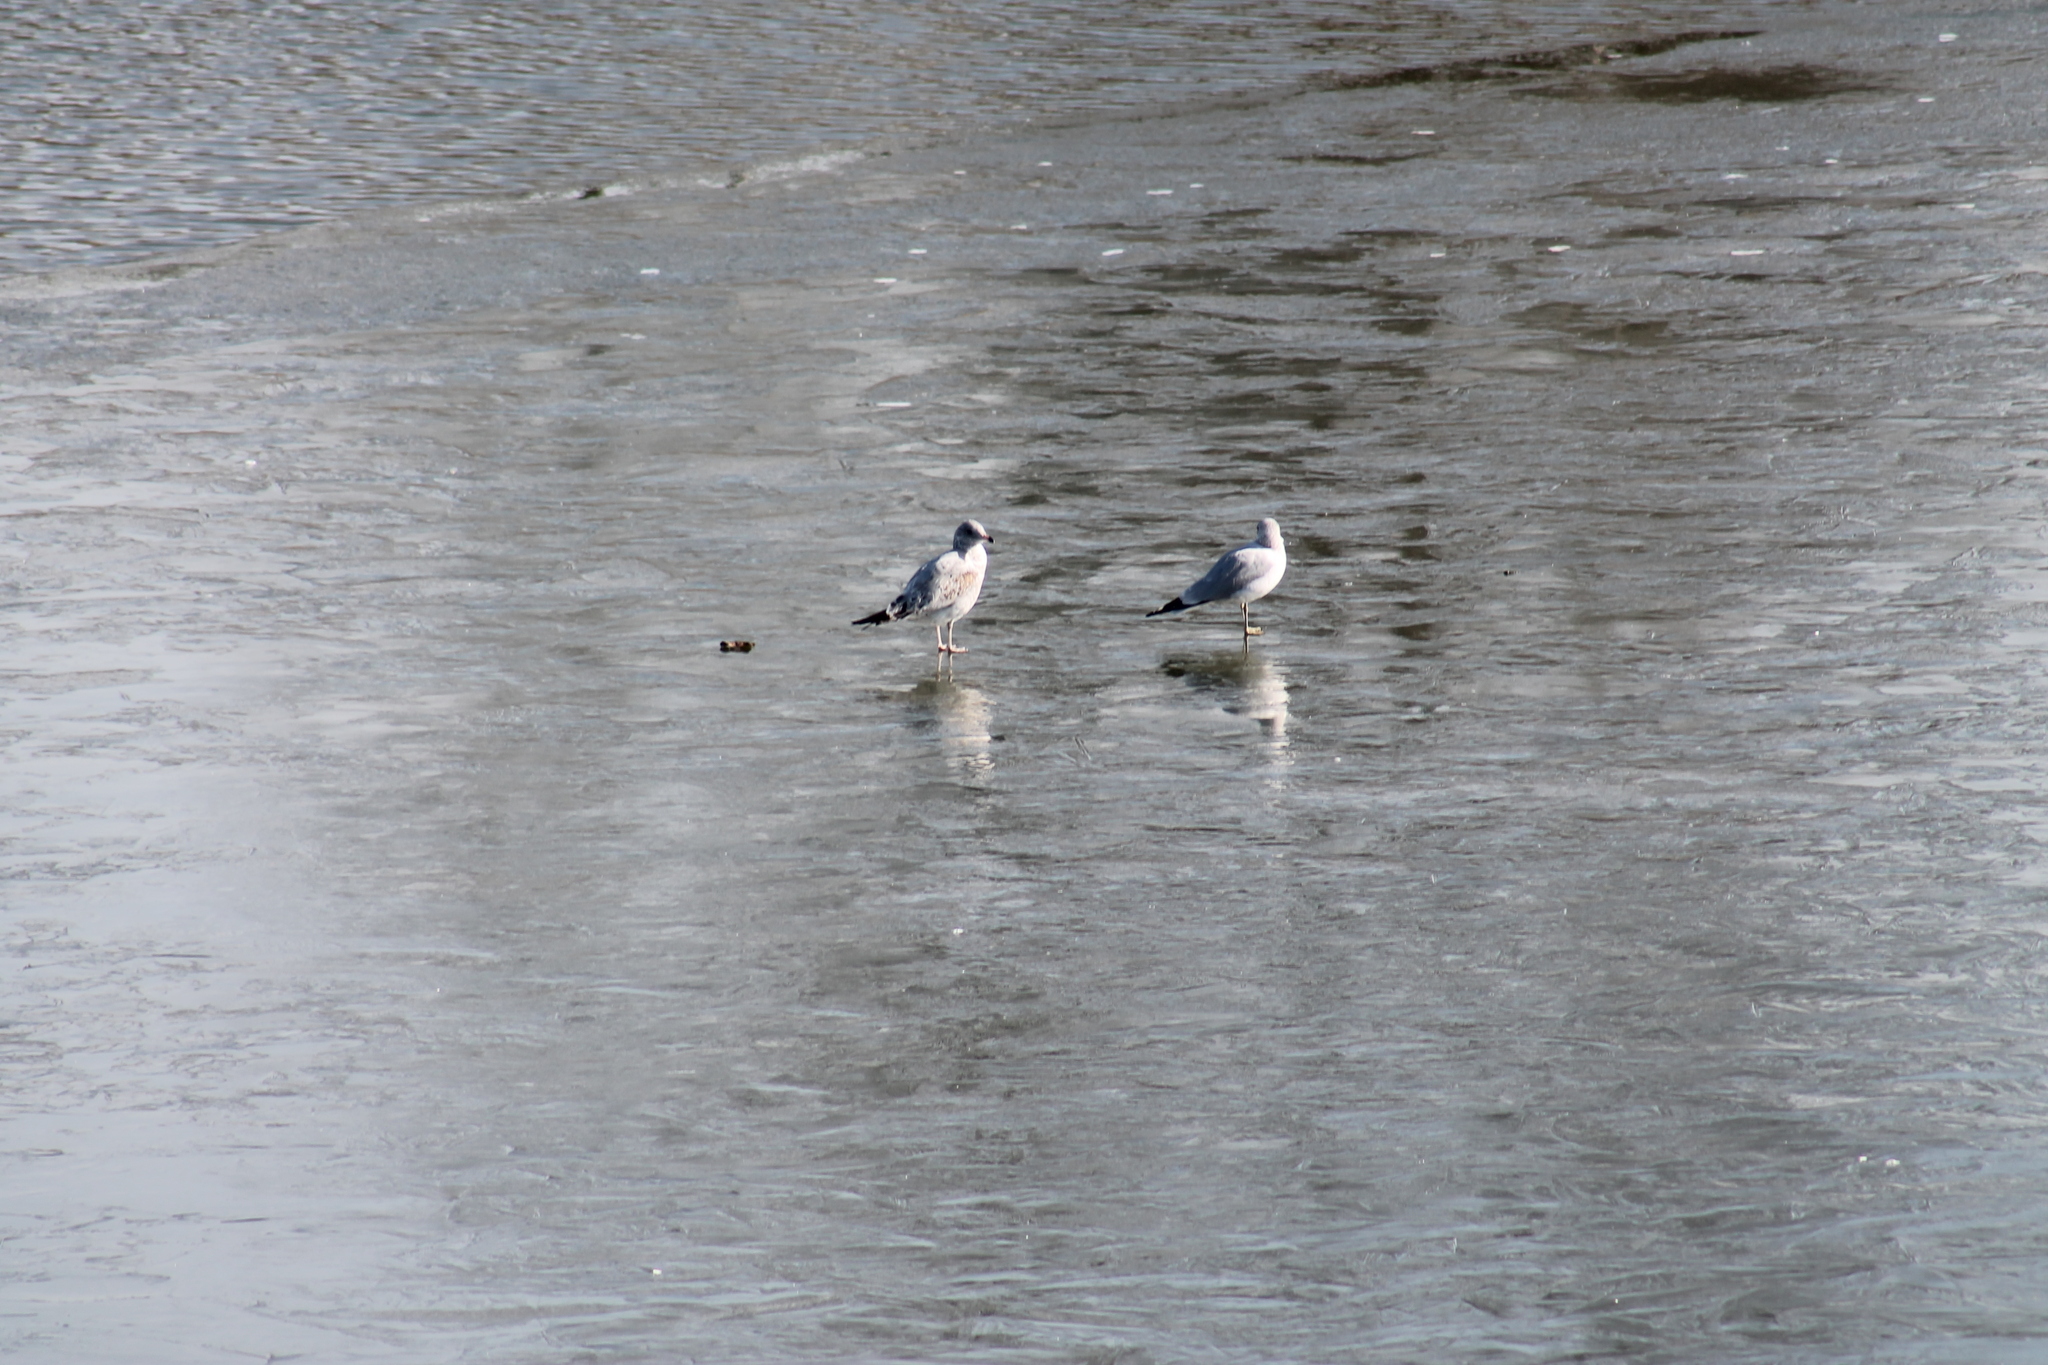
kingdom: Animalia
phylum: Chordata
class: Aves
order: Charadriiformes
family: Laridae
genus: Larus
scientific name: Larus delawarensis
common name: Ring-billed gull
